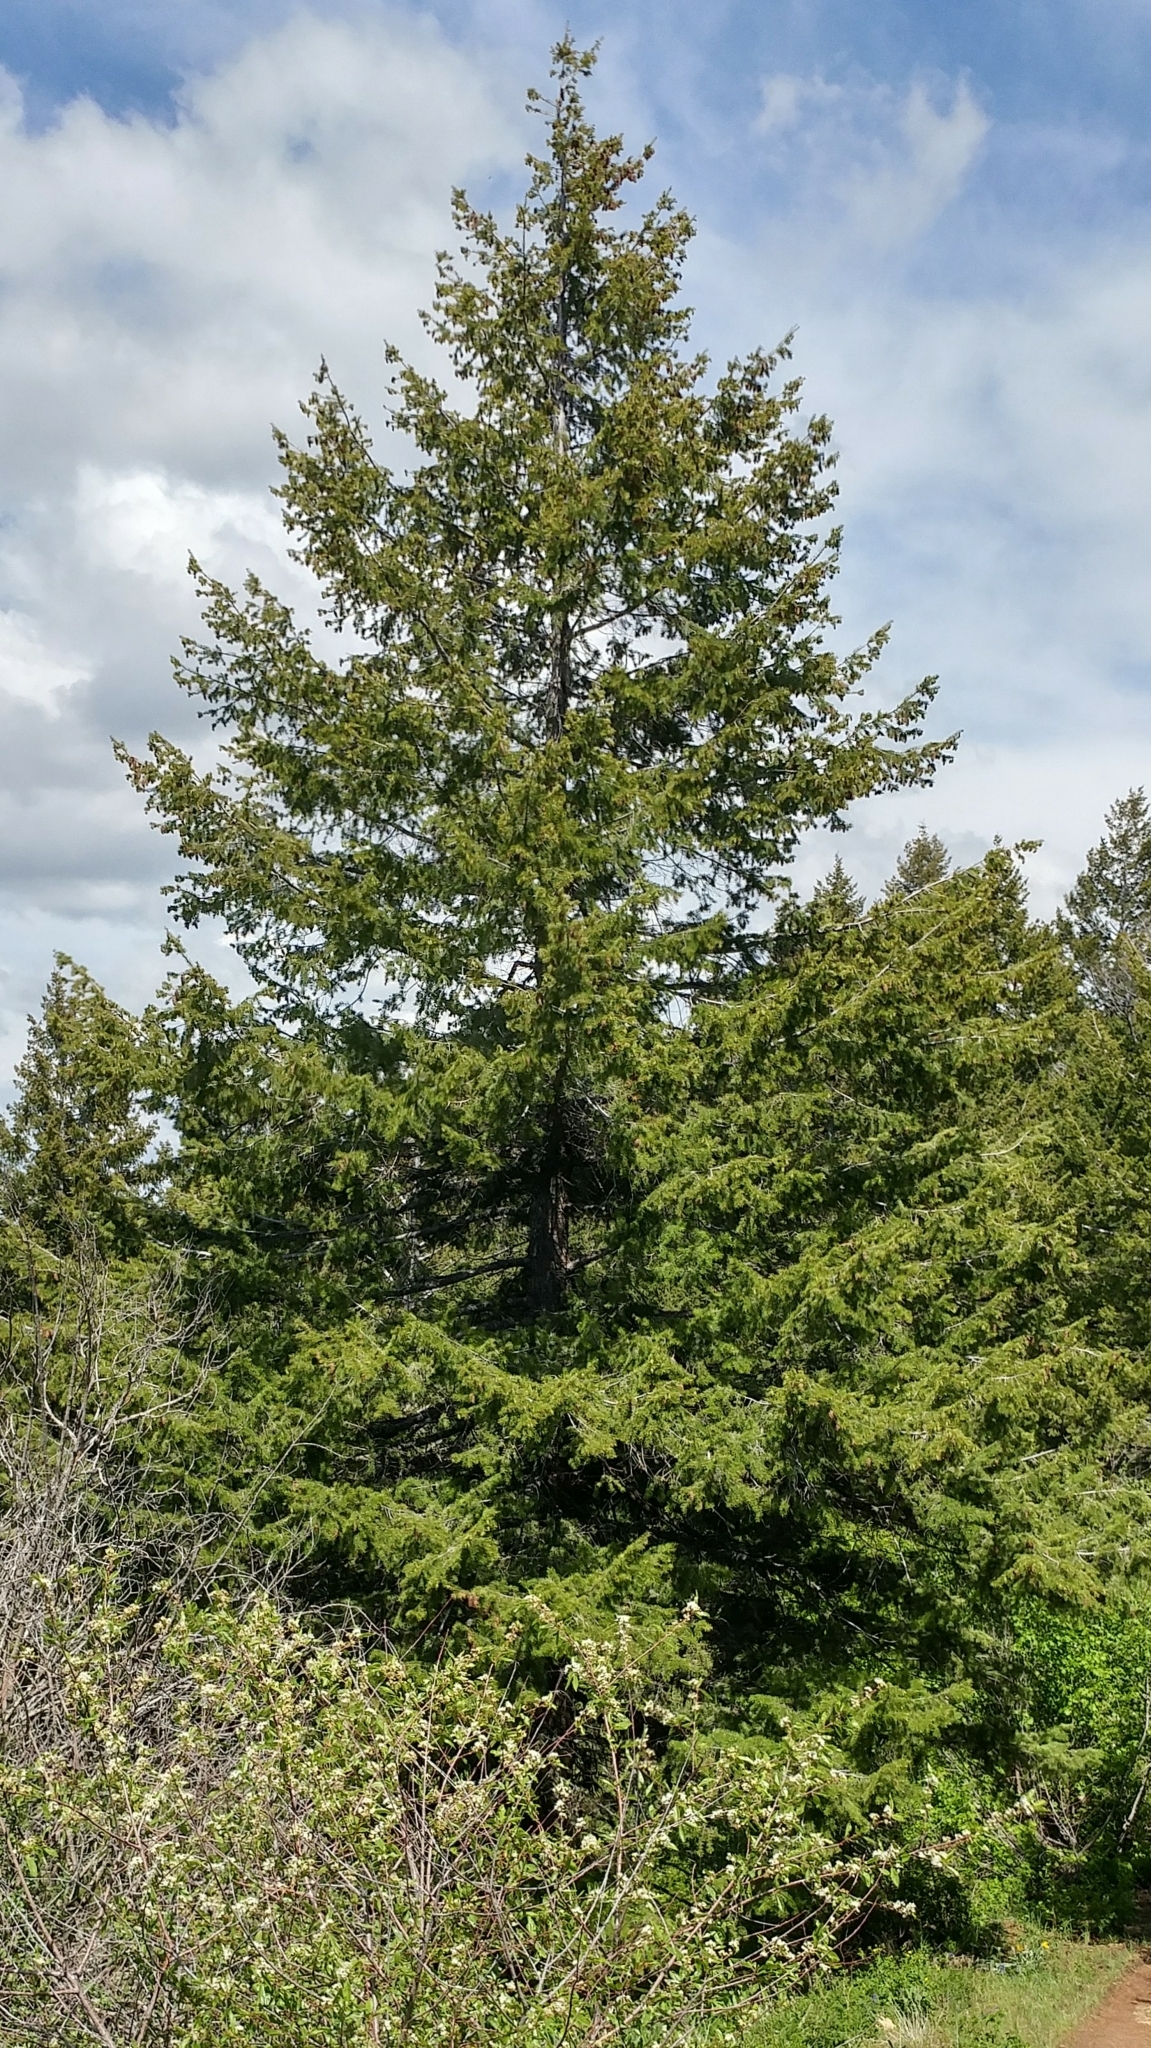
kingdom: Plantae
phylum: Tracheophyta
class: Pinopsida
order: Pinales
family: Pinaceae
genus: Pseudotsuga
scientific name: Pseudotsuga menziesii
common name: Douglas fir
